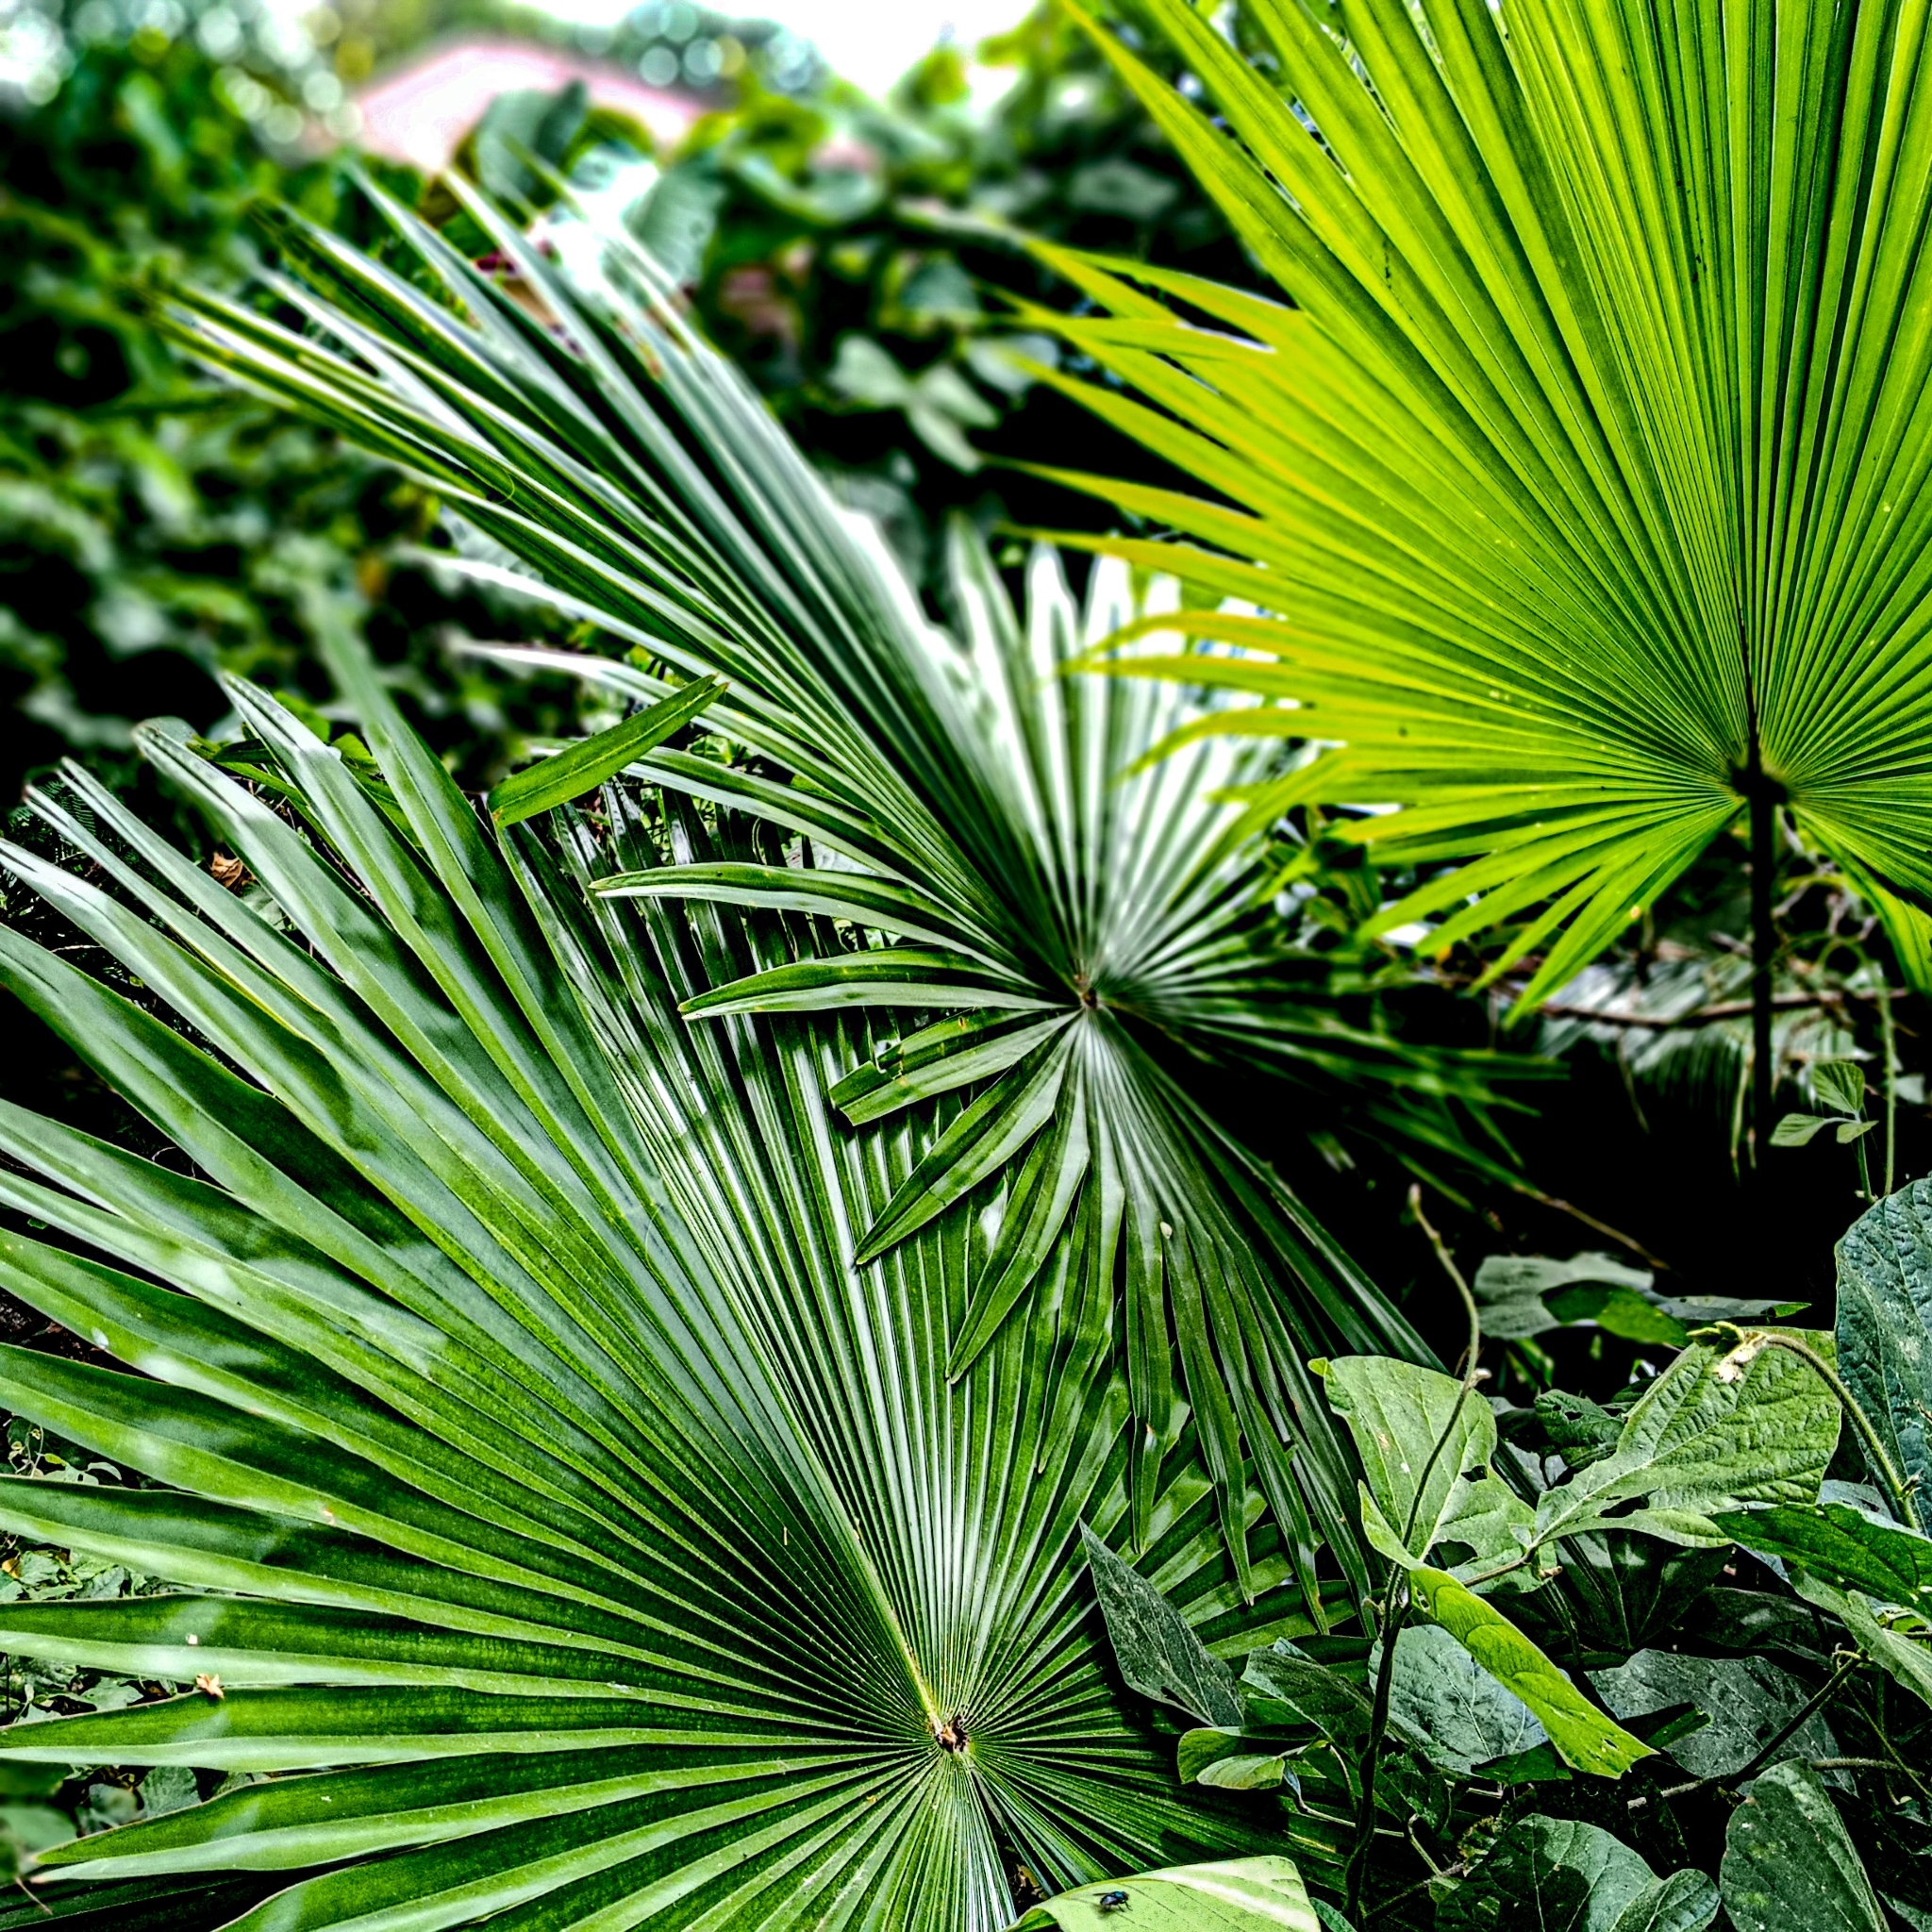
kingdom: Plantae
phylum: Tracheophyta
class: Liliopsida
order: Arecales
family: Arecaceae
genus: Saribus
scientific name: Saribus rotundifolius
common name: Palm
